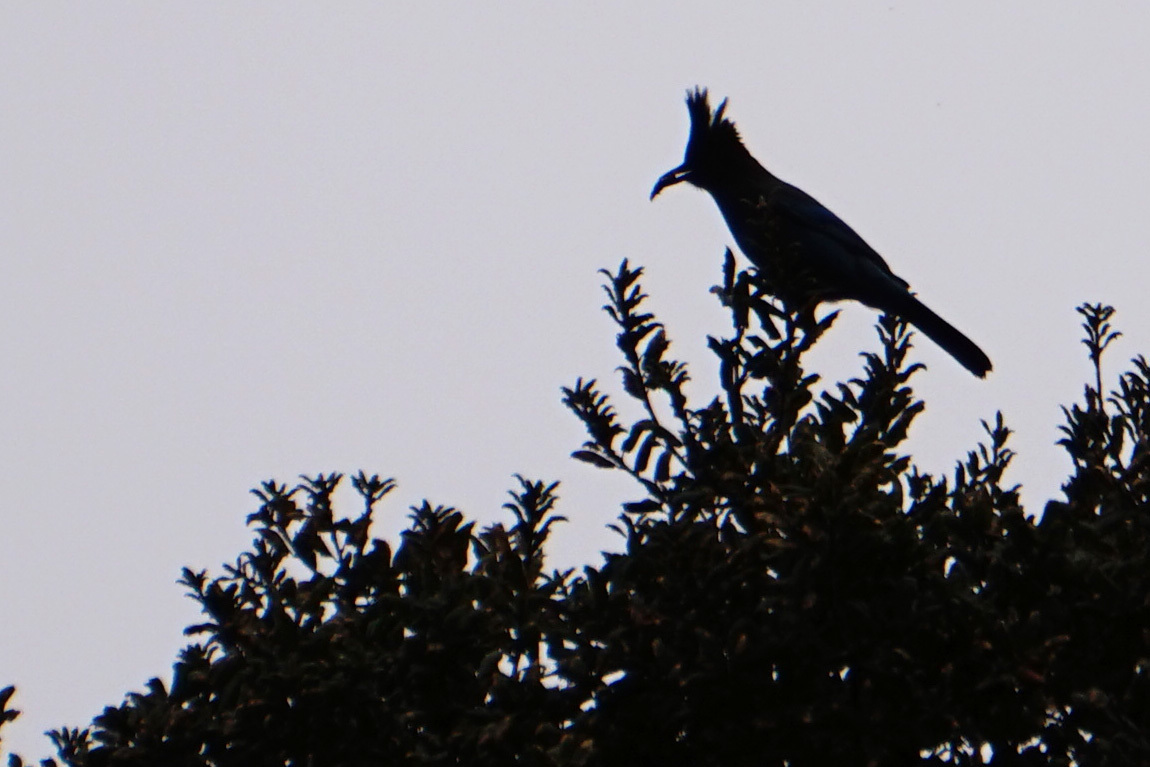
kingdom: Animalia
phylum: Chordata
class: Aves
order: Passeriformes
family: Corvidae
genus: Cyanocitta
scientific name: Cyanocitta stelleri
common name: Steller's jay
